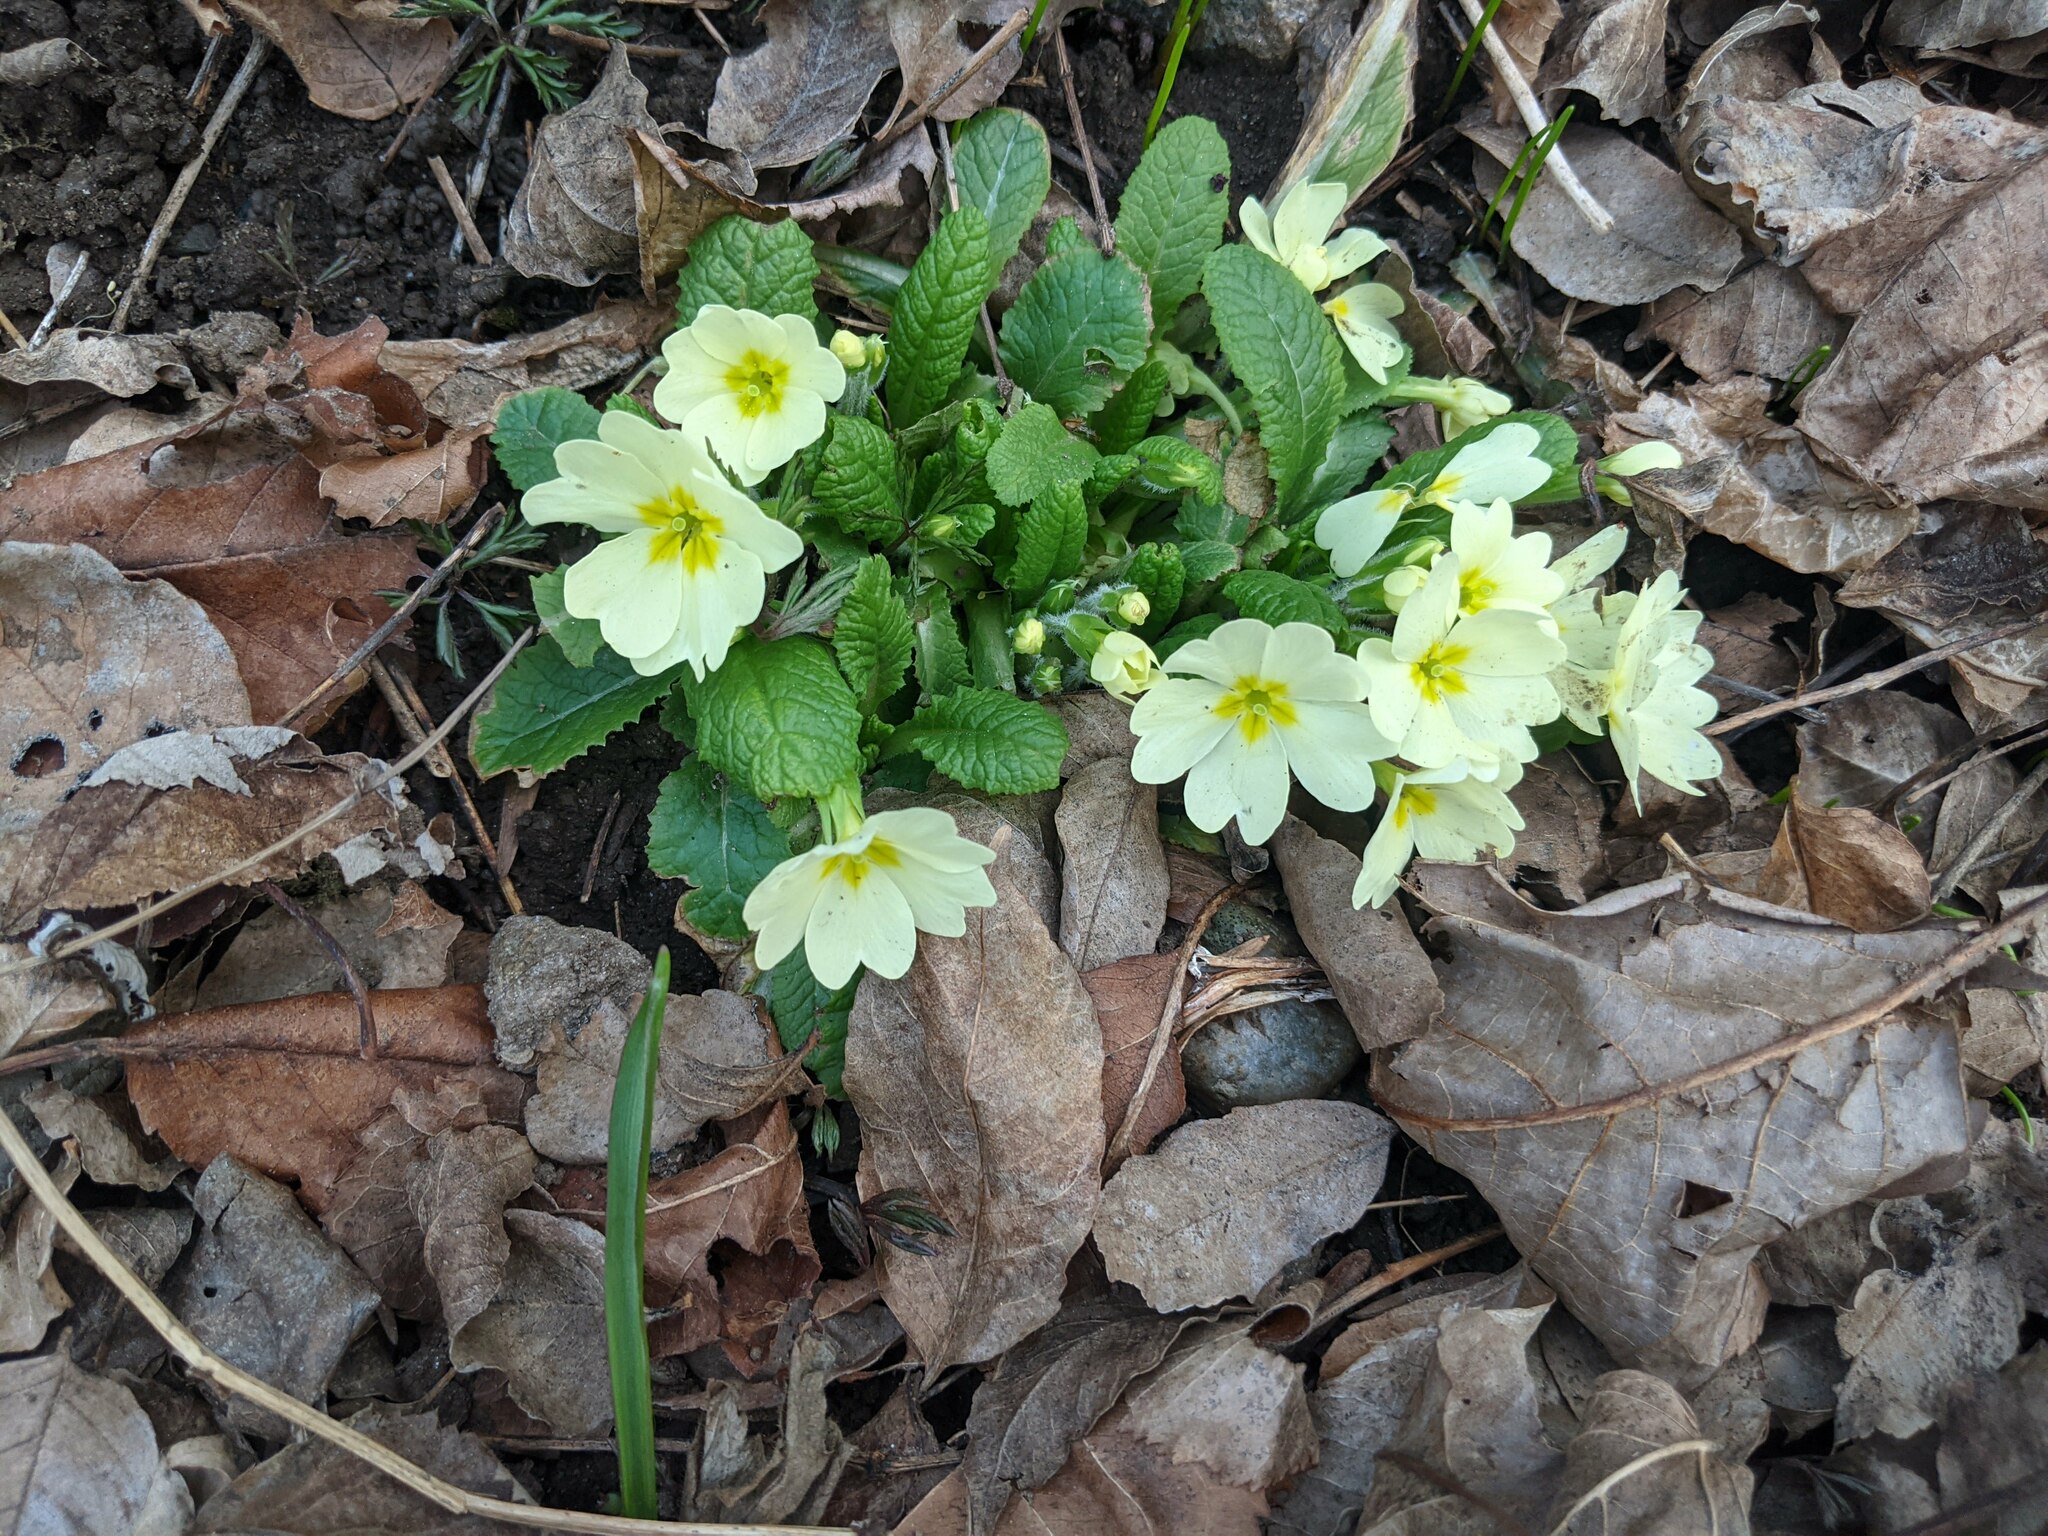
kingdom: Plantae
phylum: Tracheophyta
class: Magnoliopsida
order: Ericales
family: Primulaceae
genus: Primula
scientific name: Primula vulgaris
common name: Primrose
